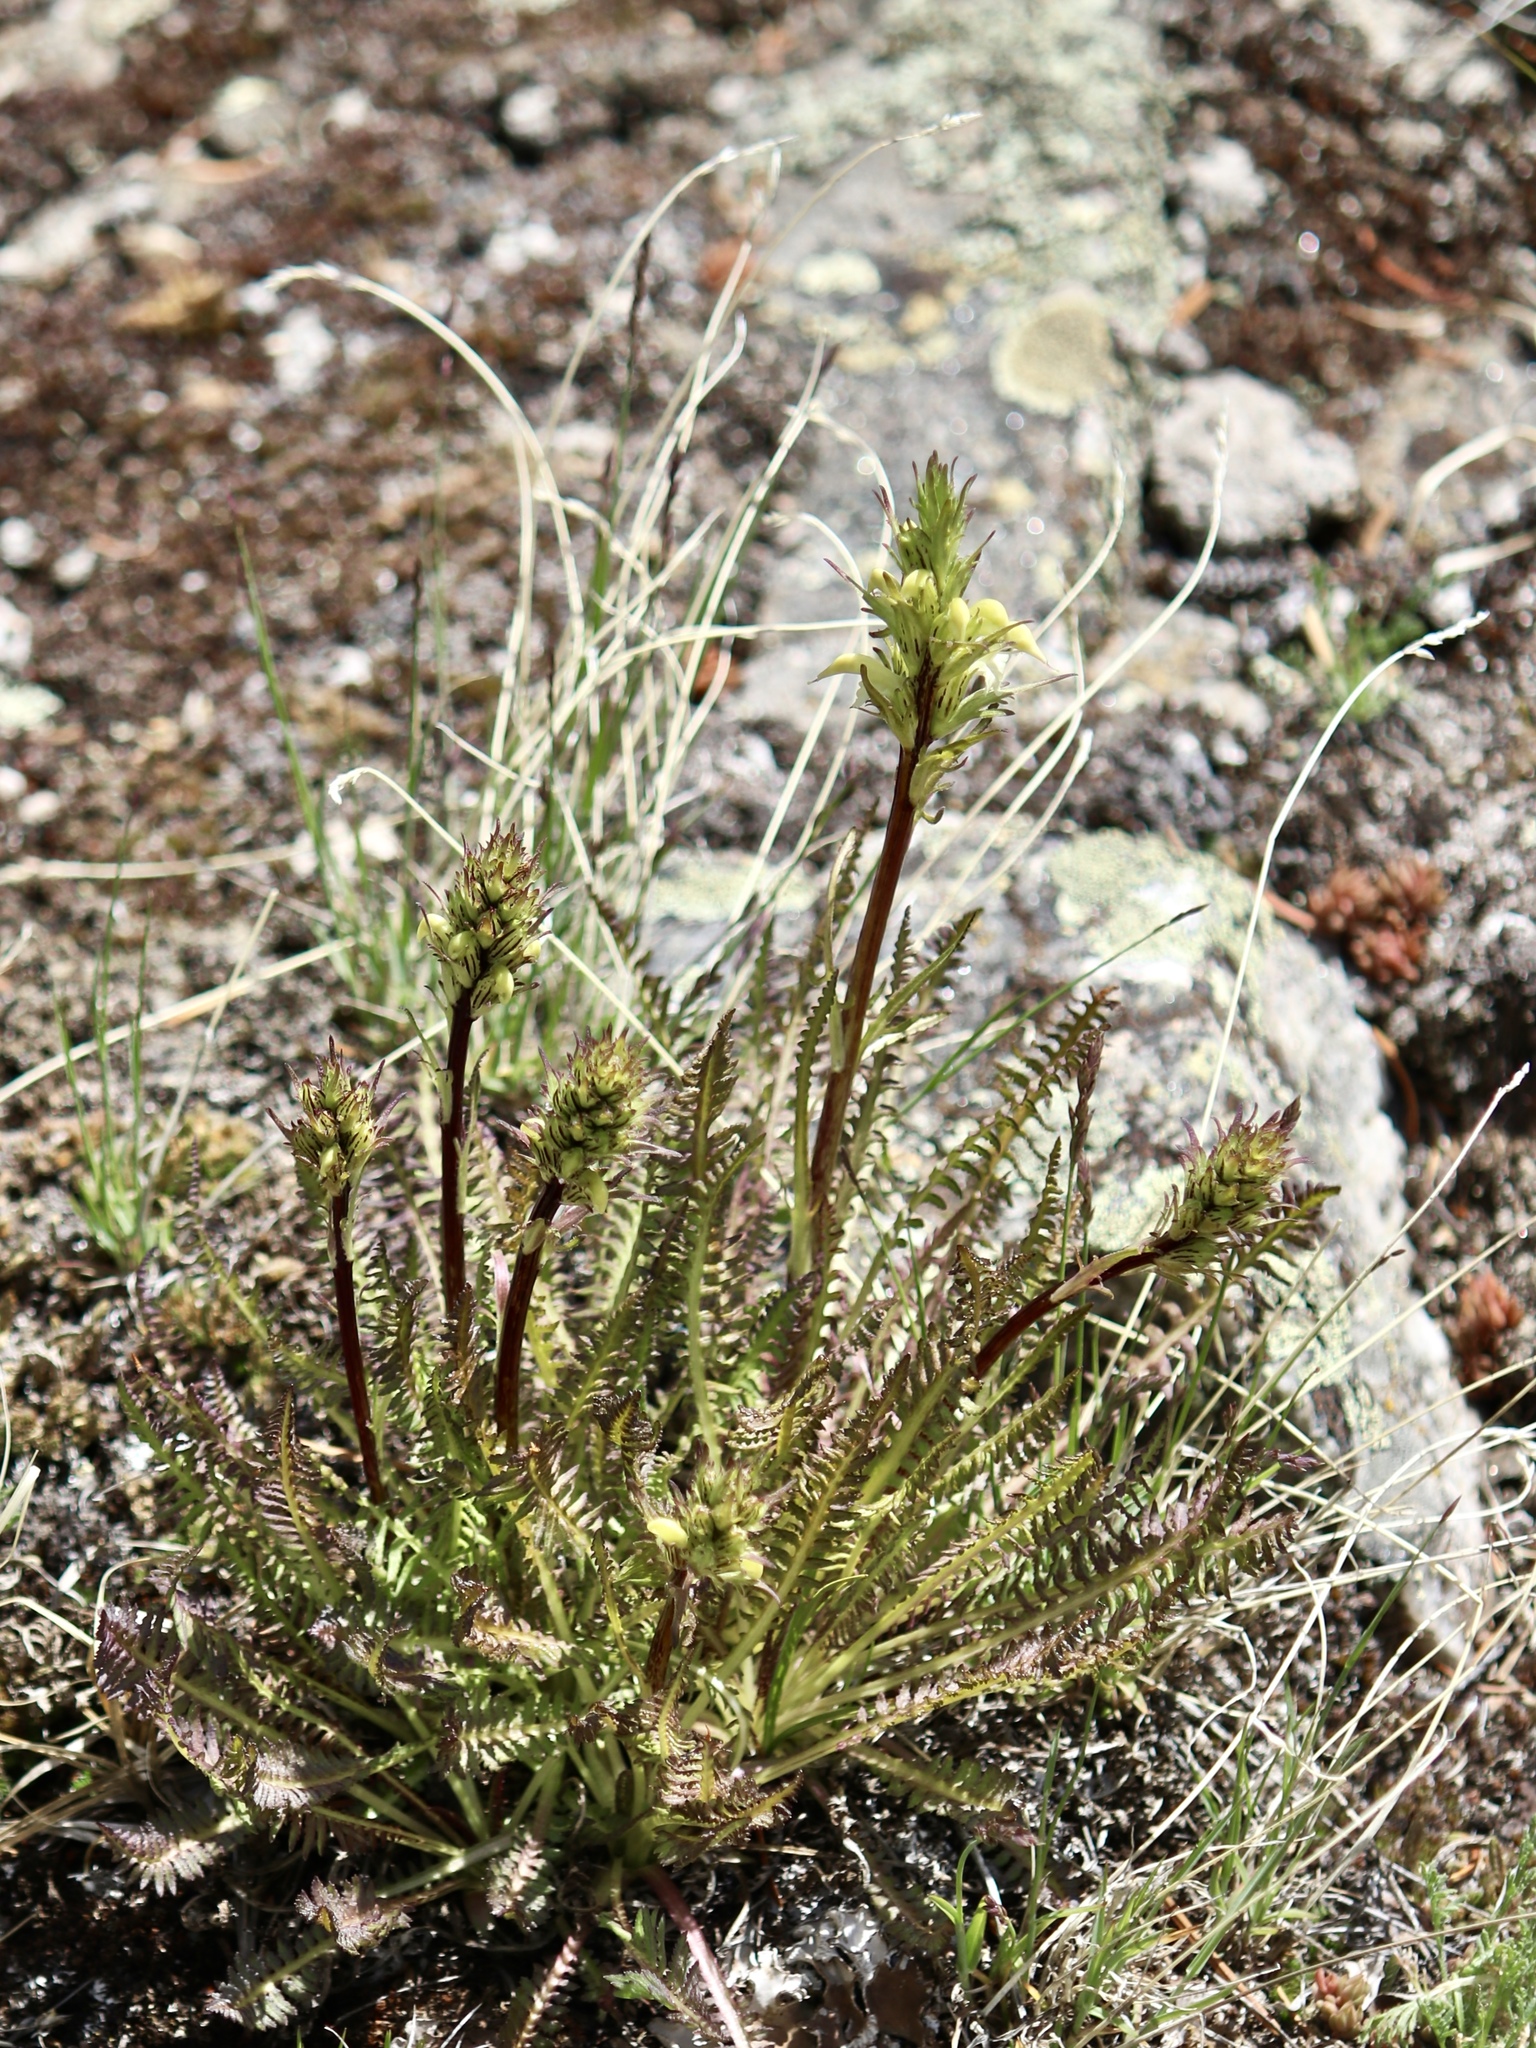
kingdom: Plantae
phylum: Tracheophyta
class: Magnoliopsida
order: Lamiales
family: Orobanchaceae
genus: Pedicularis
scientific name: Pedicularis parryi
